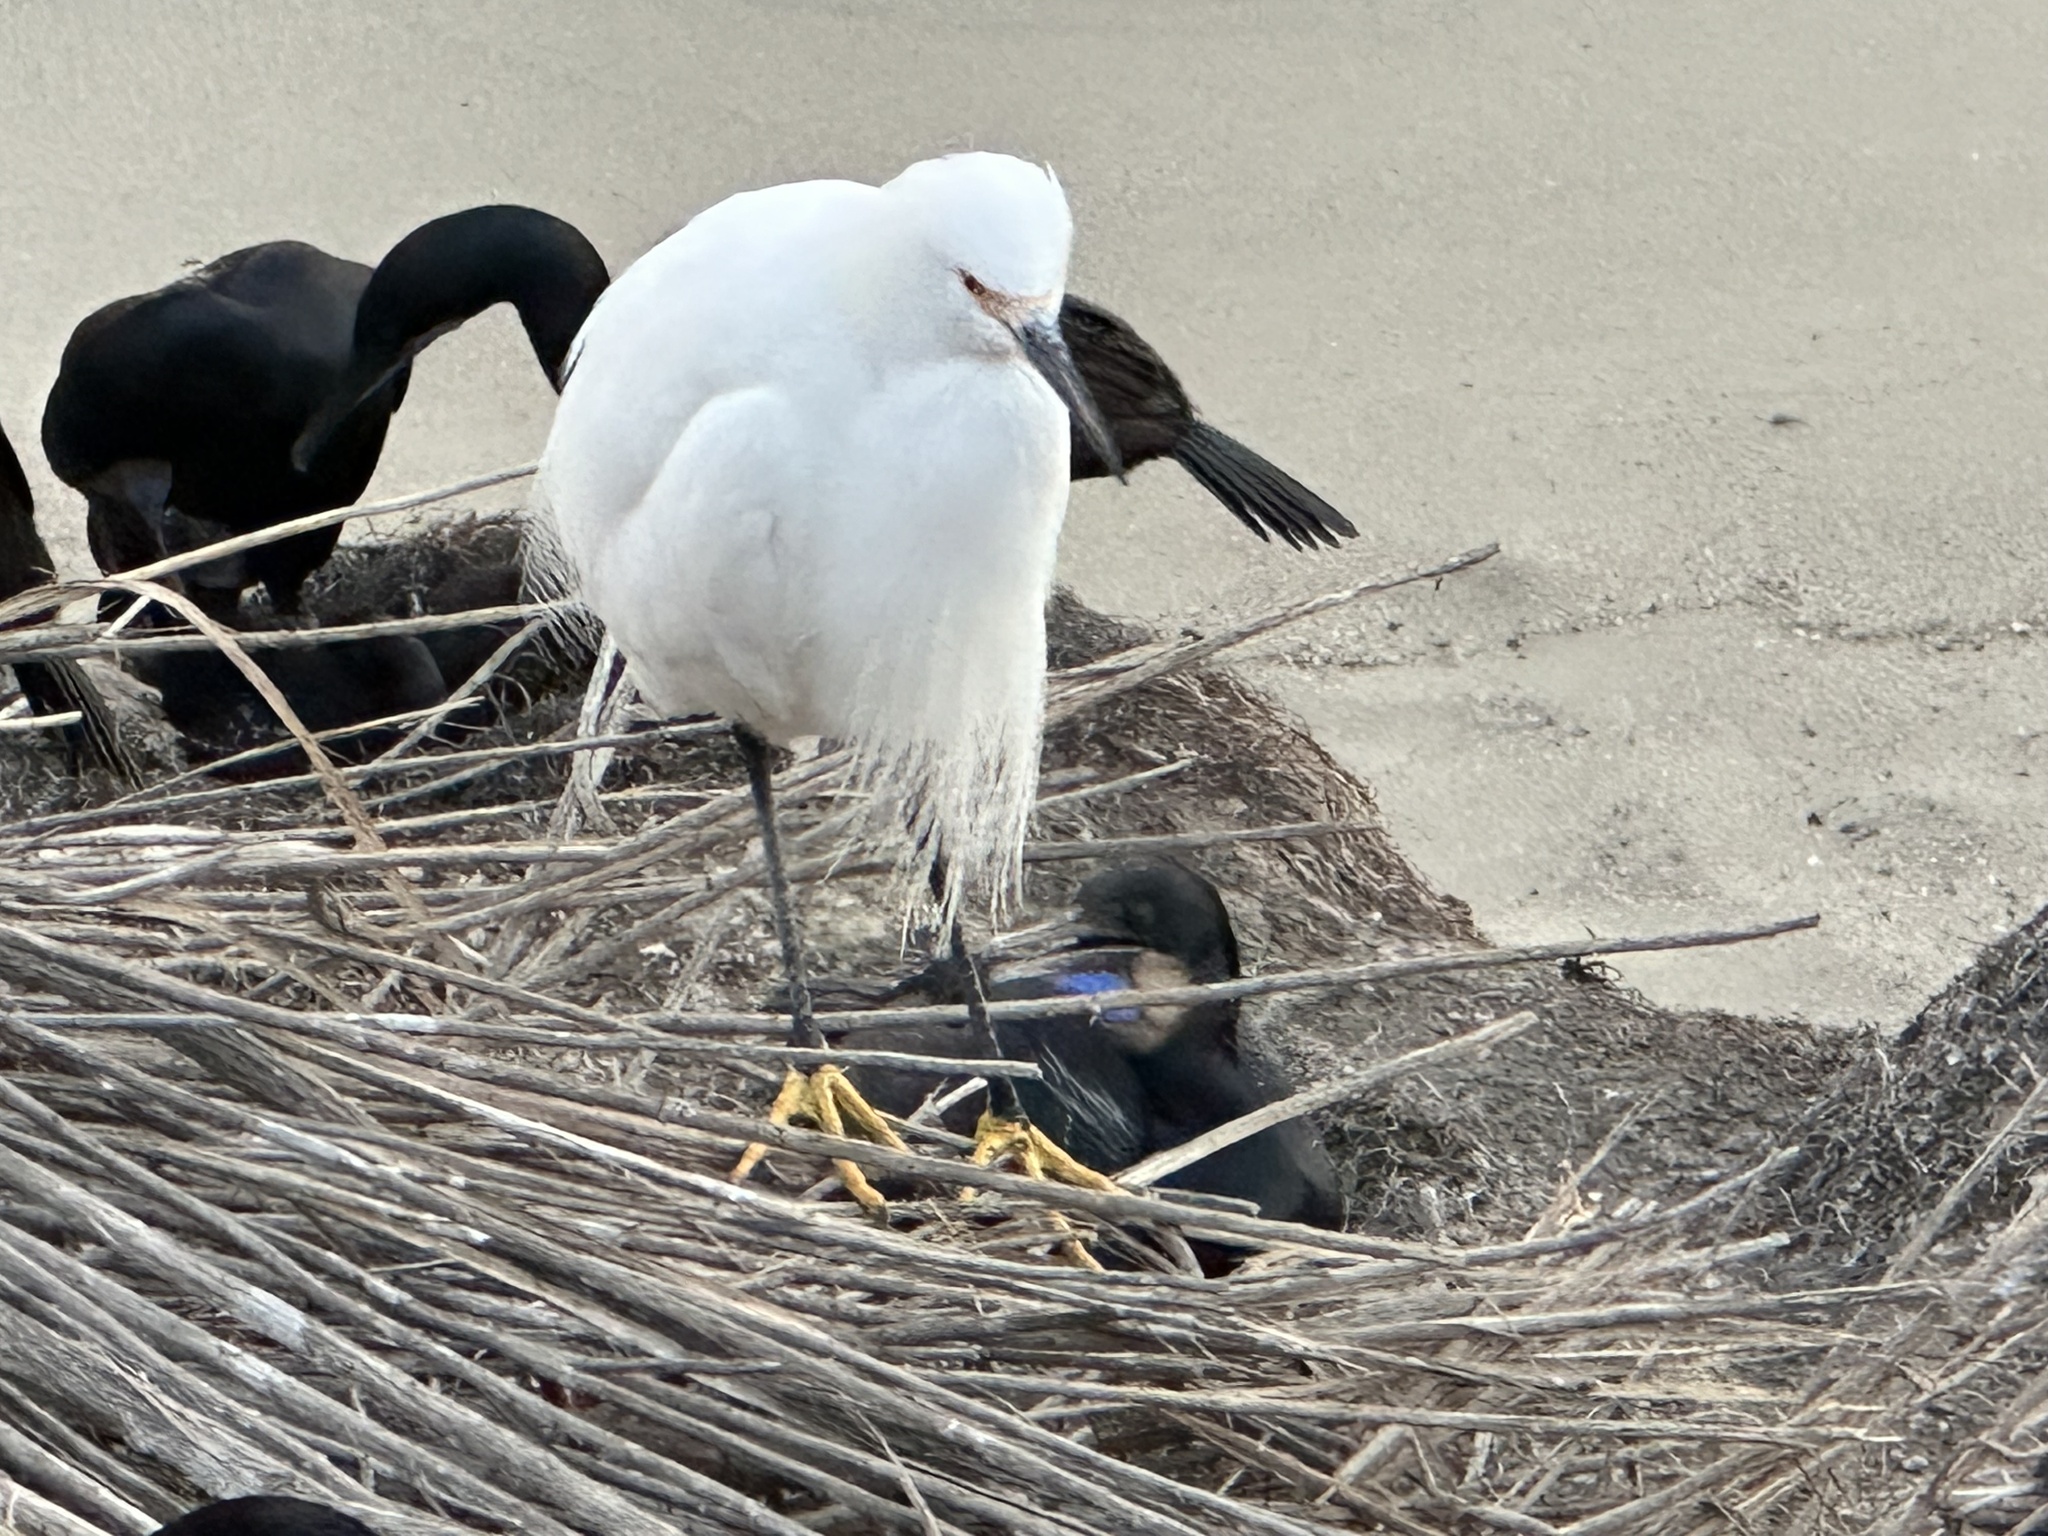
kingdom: Animalia
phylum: Chordata
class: Aves
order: Pelecaniformes
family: Ardeidae
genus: Egretta
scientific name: Egretta thula
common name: Snowy egret
